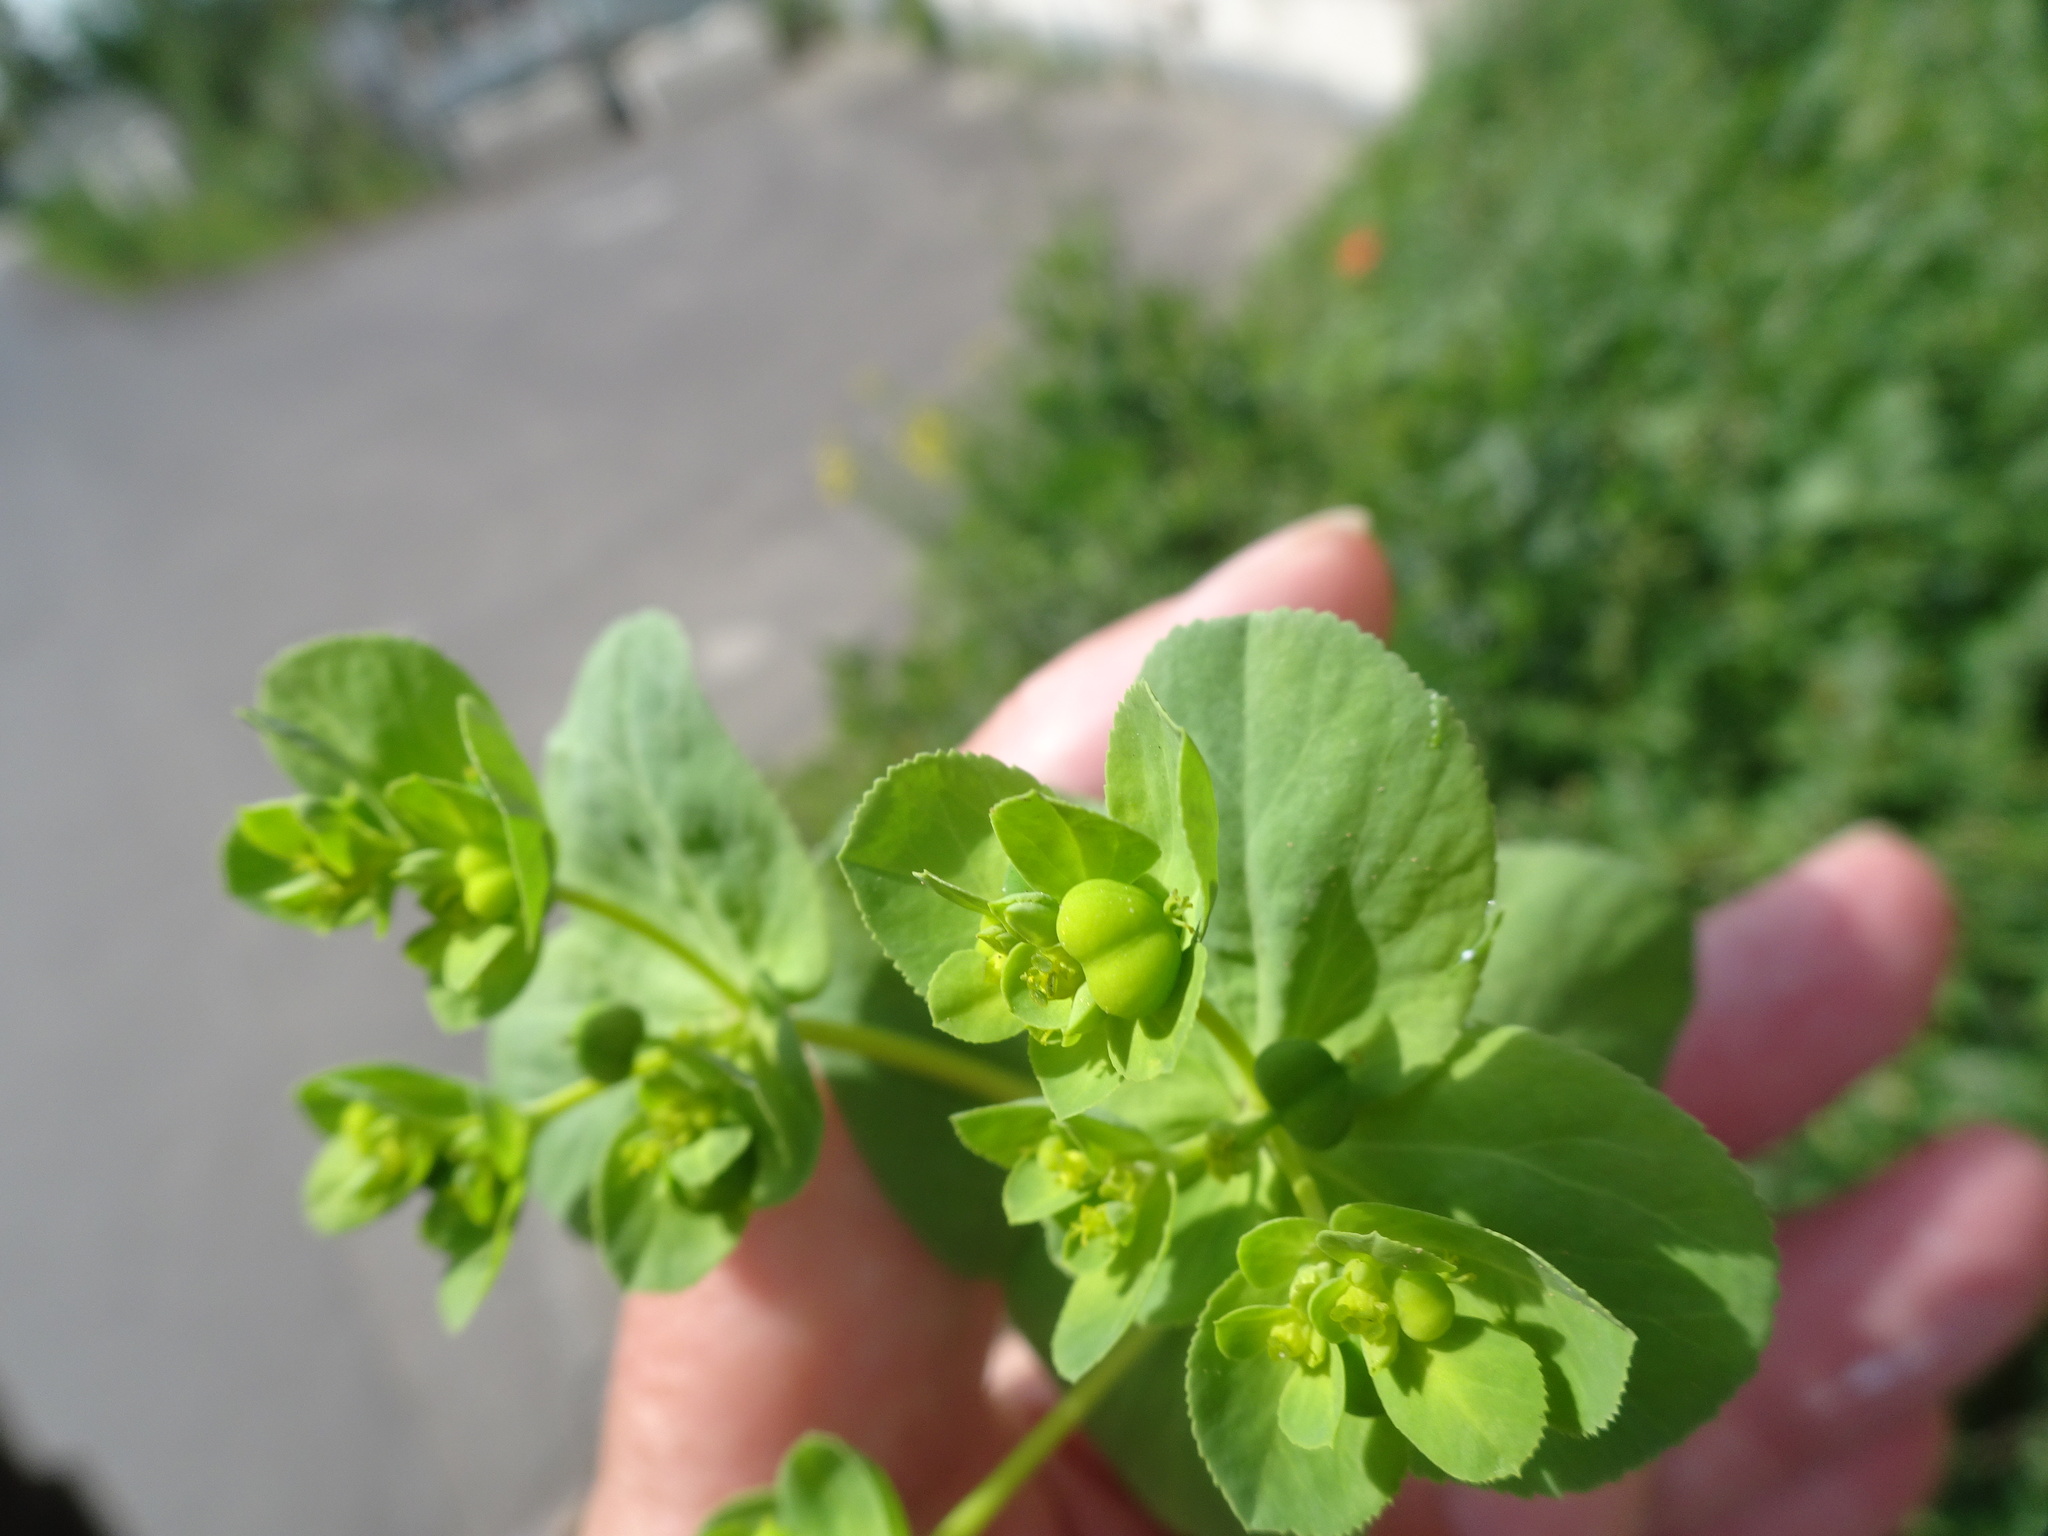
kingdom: Plantae
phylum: Tracheophyta
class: Magnoliopsida
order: Malpighiales
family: Euphorbiaceae
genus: Euphorbia
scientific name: Euphorbia helioscopia
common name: Sun spurge
